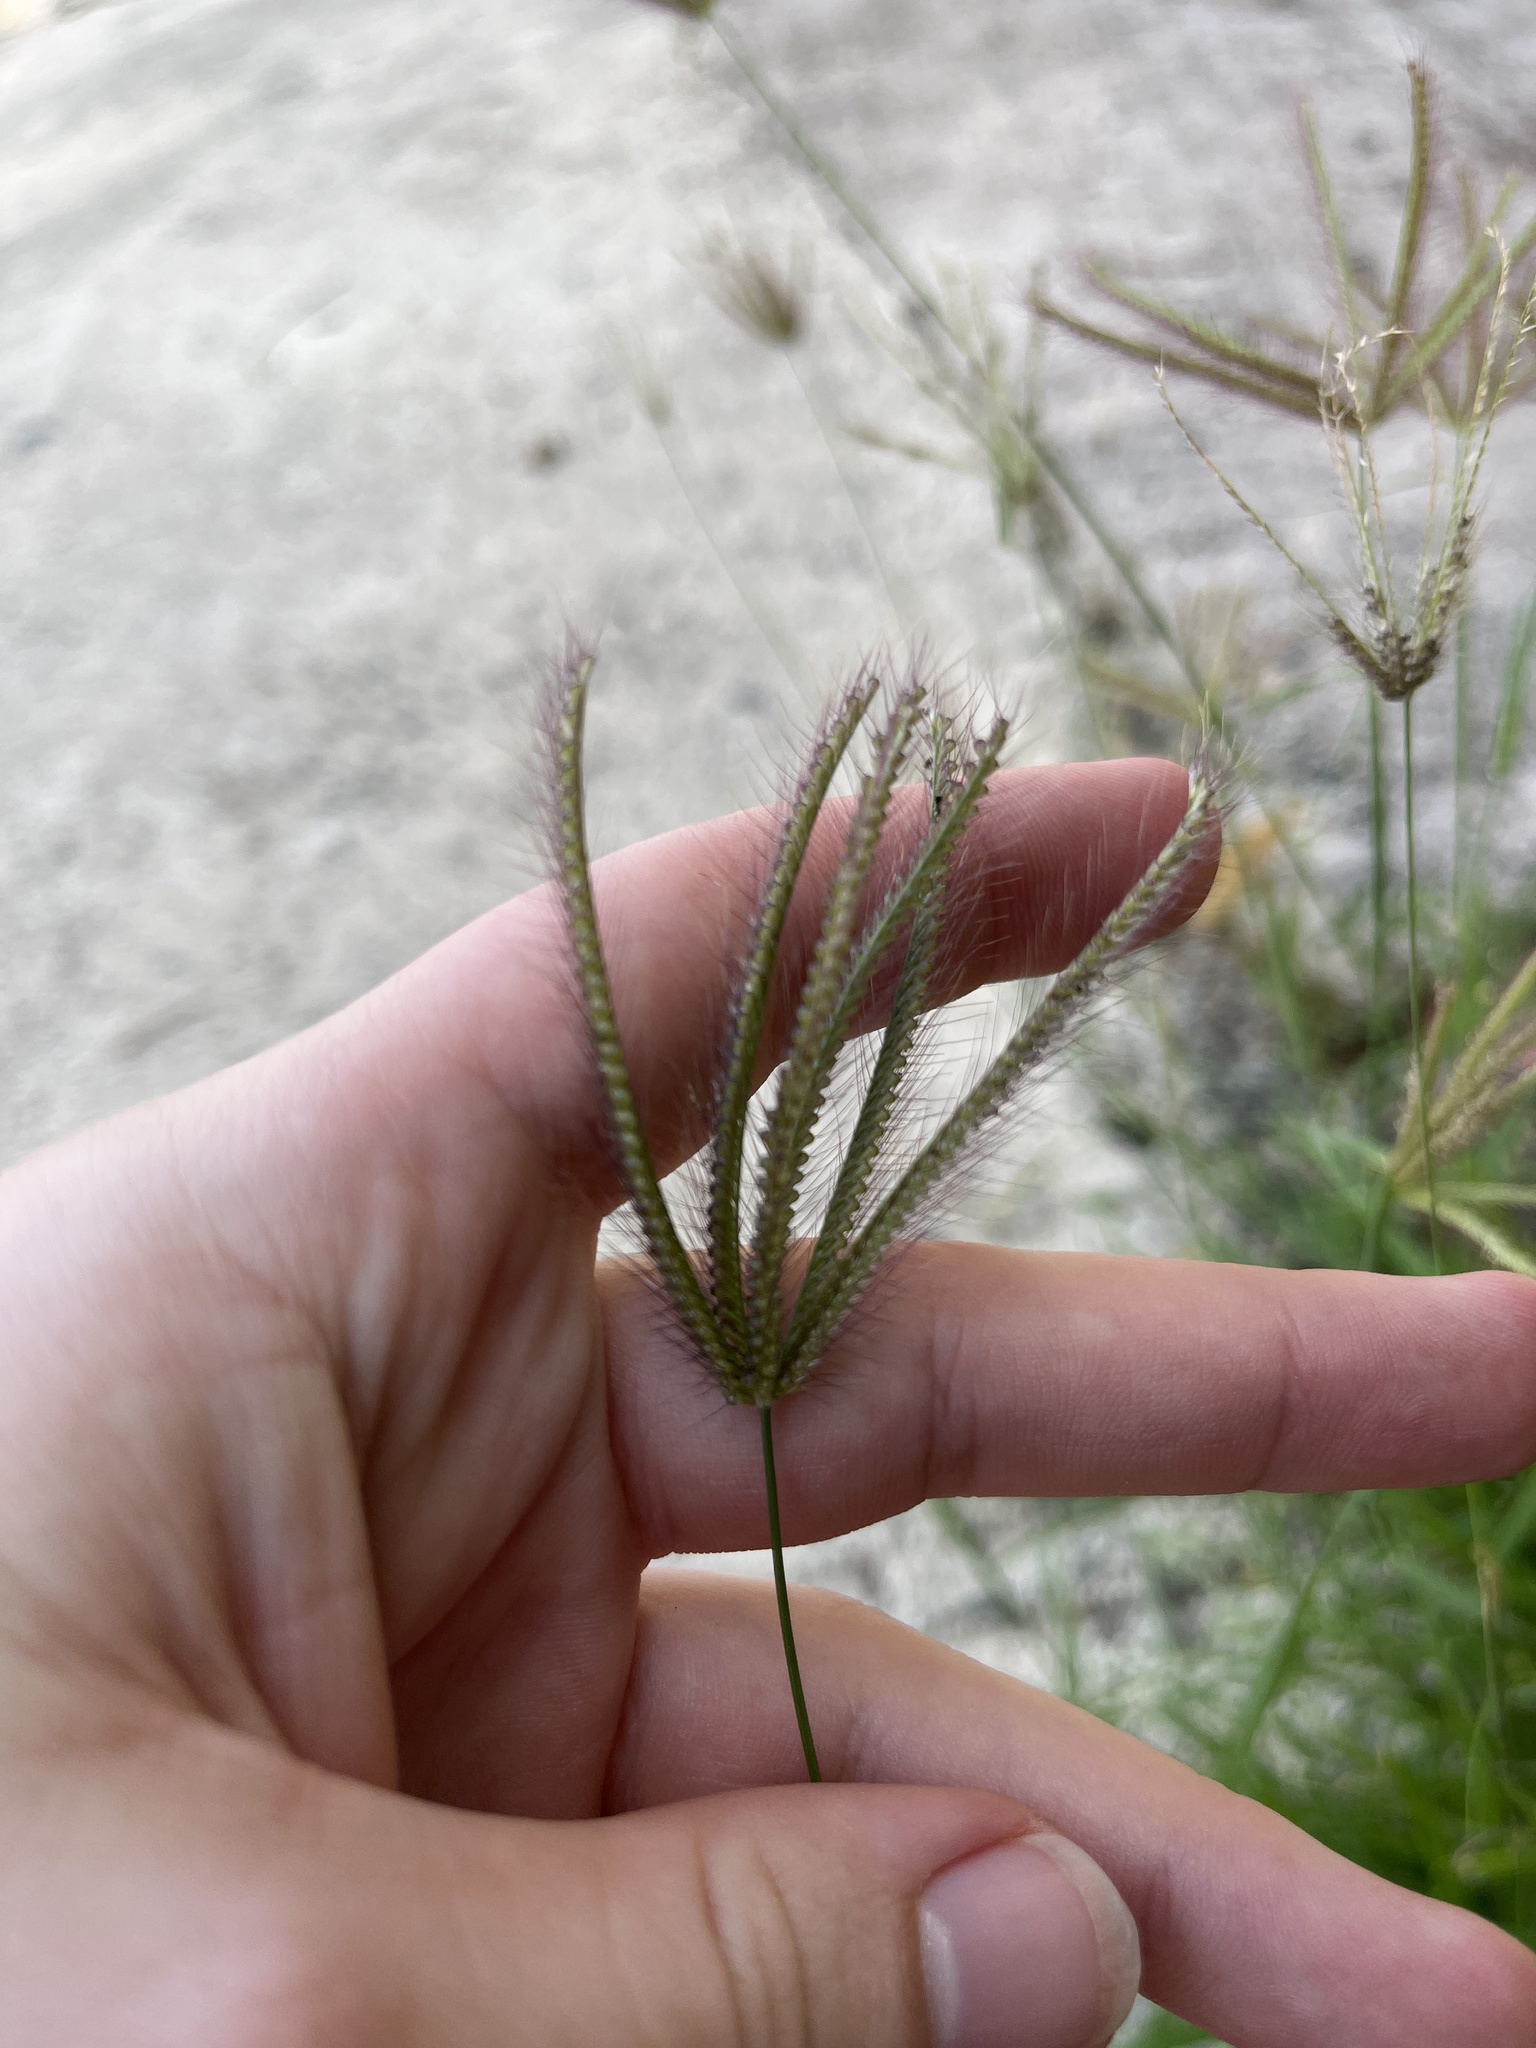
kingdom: Plantae
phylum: Tracheophyta
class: Liliopsida
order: Poales
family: Poaceae
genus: Chloris
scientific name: Chloris barbata
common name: Swollen fingergrass
